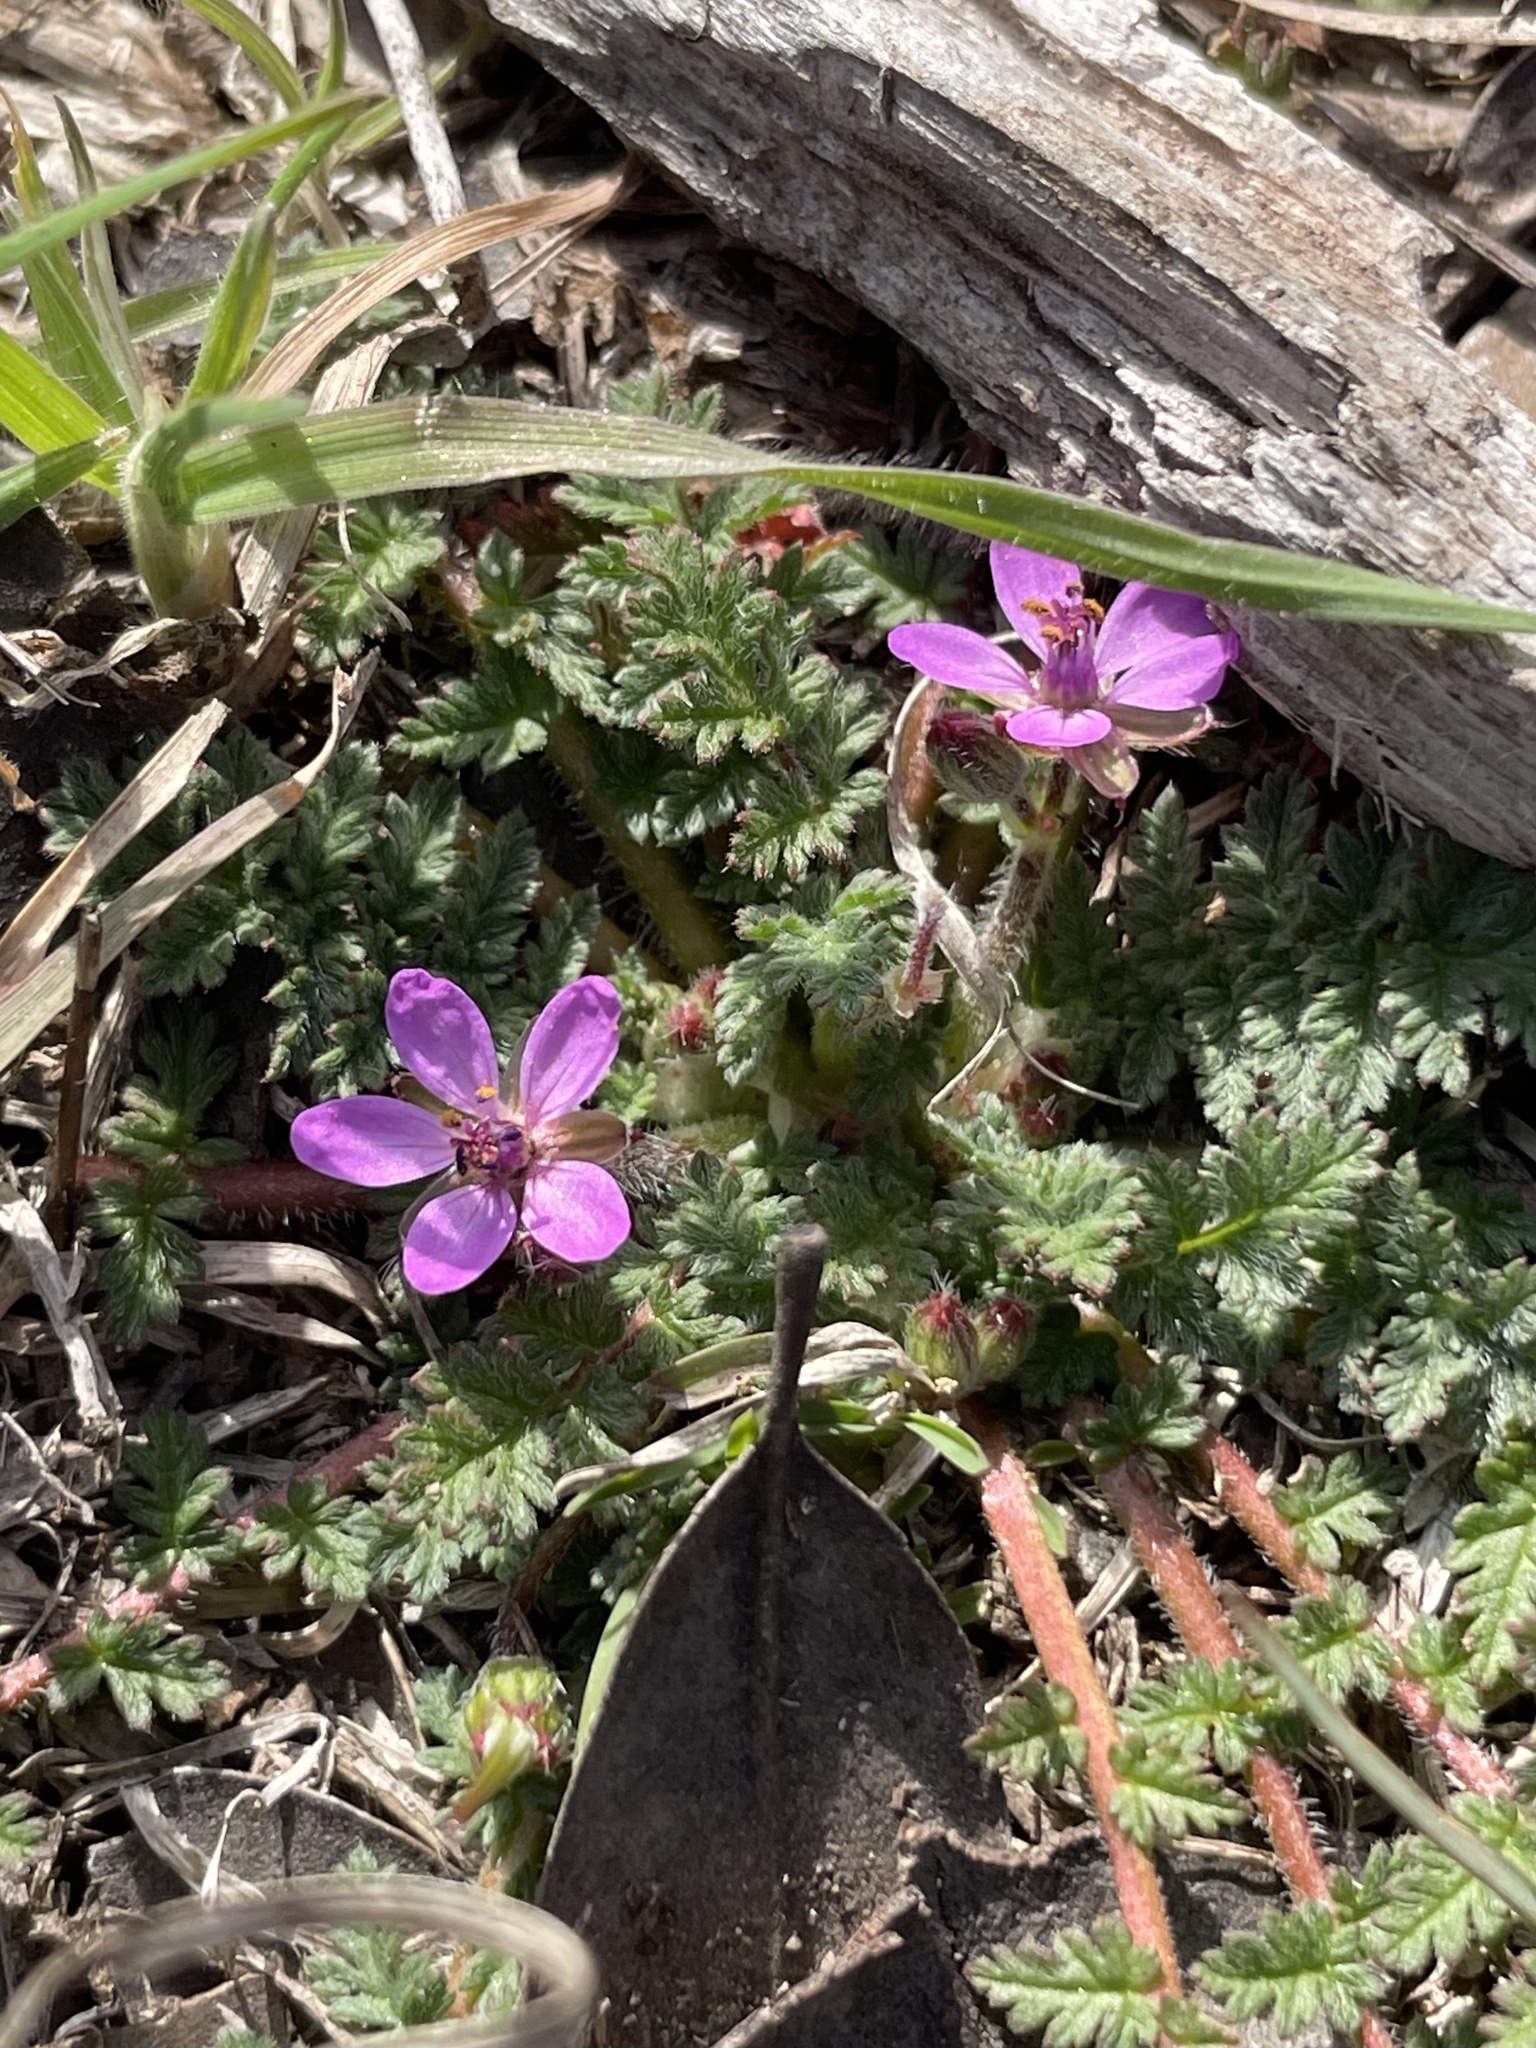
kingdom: Plantae
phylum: Tracheophyta
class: Magnoliopsida
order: Geraniales
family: Geraniaceae
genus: Erodium
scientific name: Erodium cicutarium
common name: Common stork's-bill
